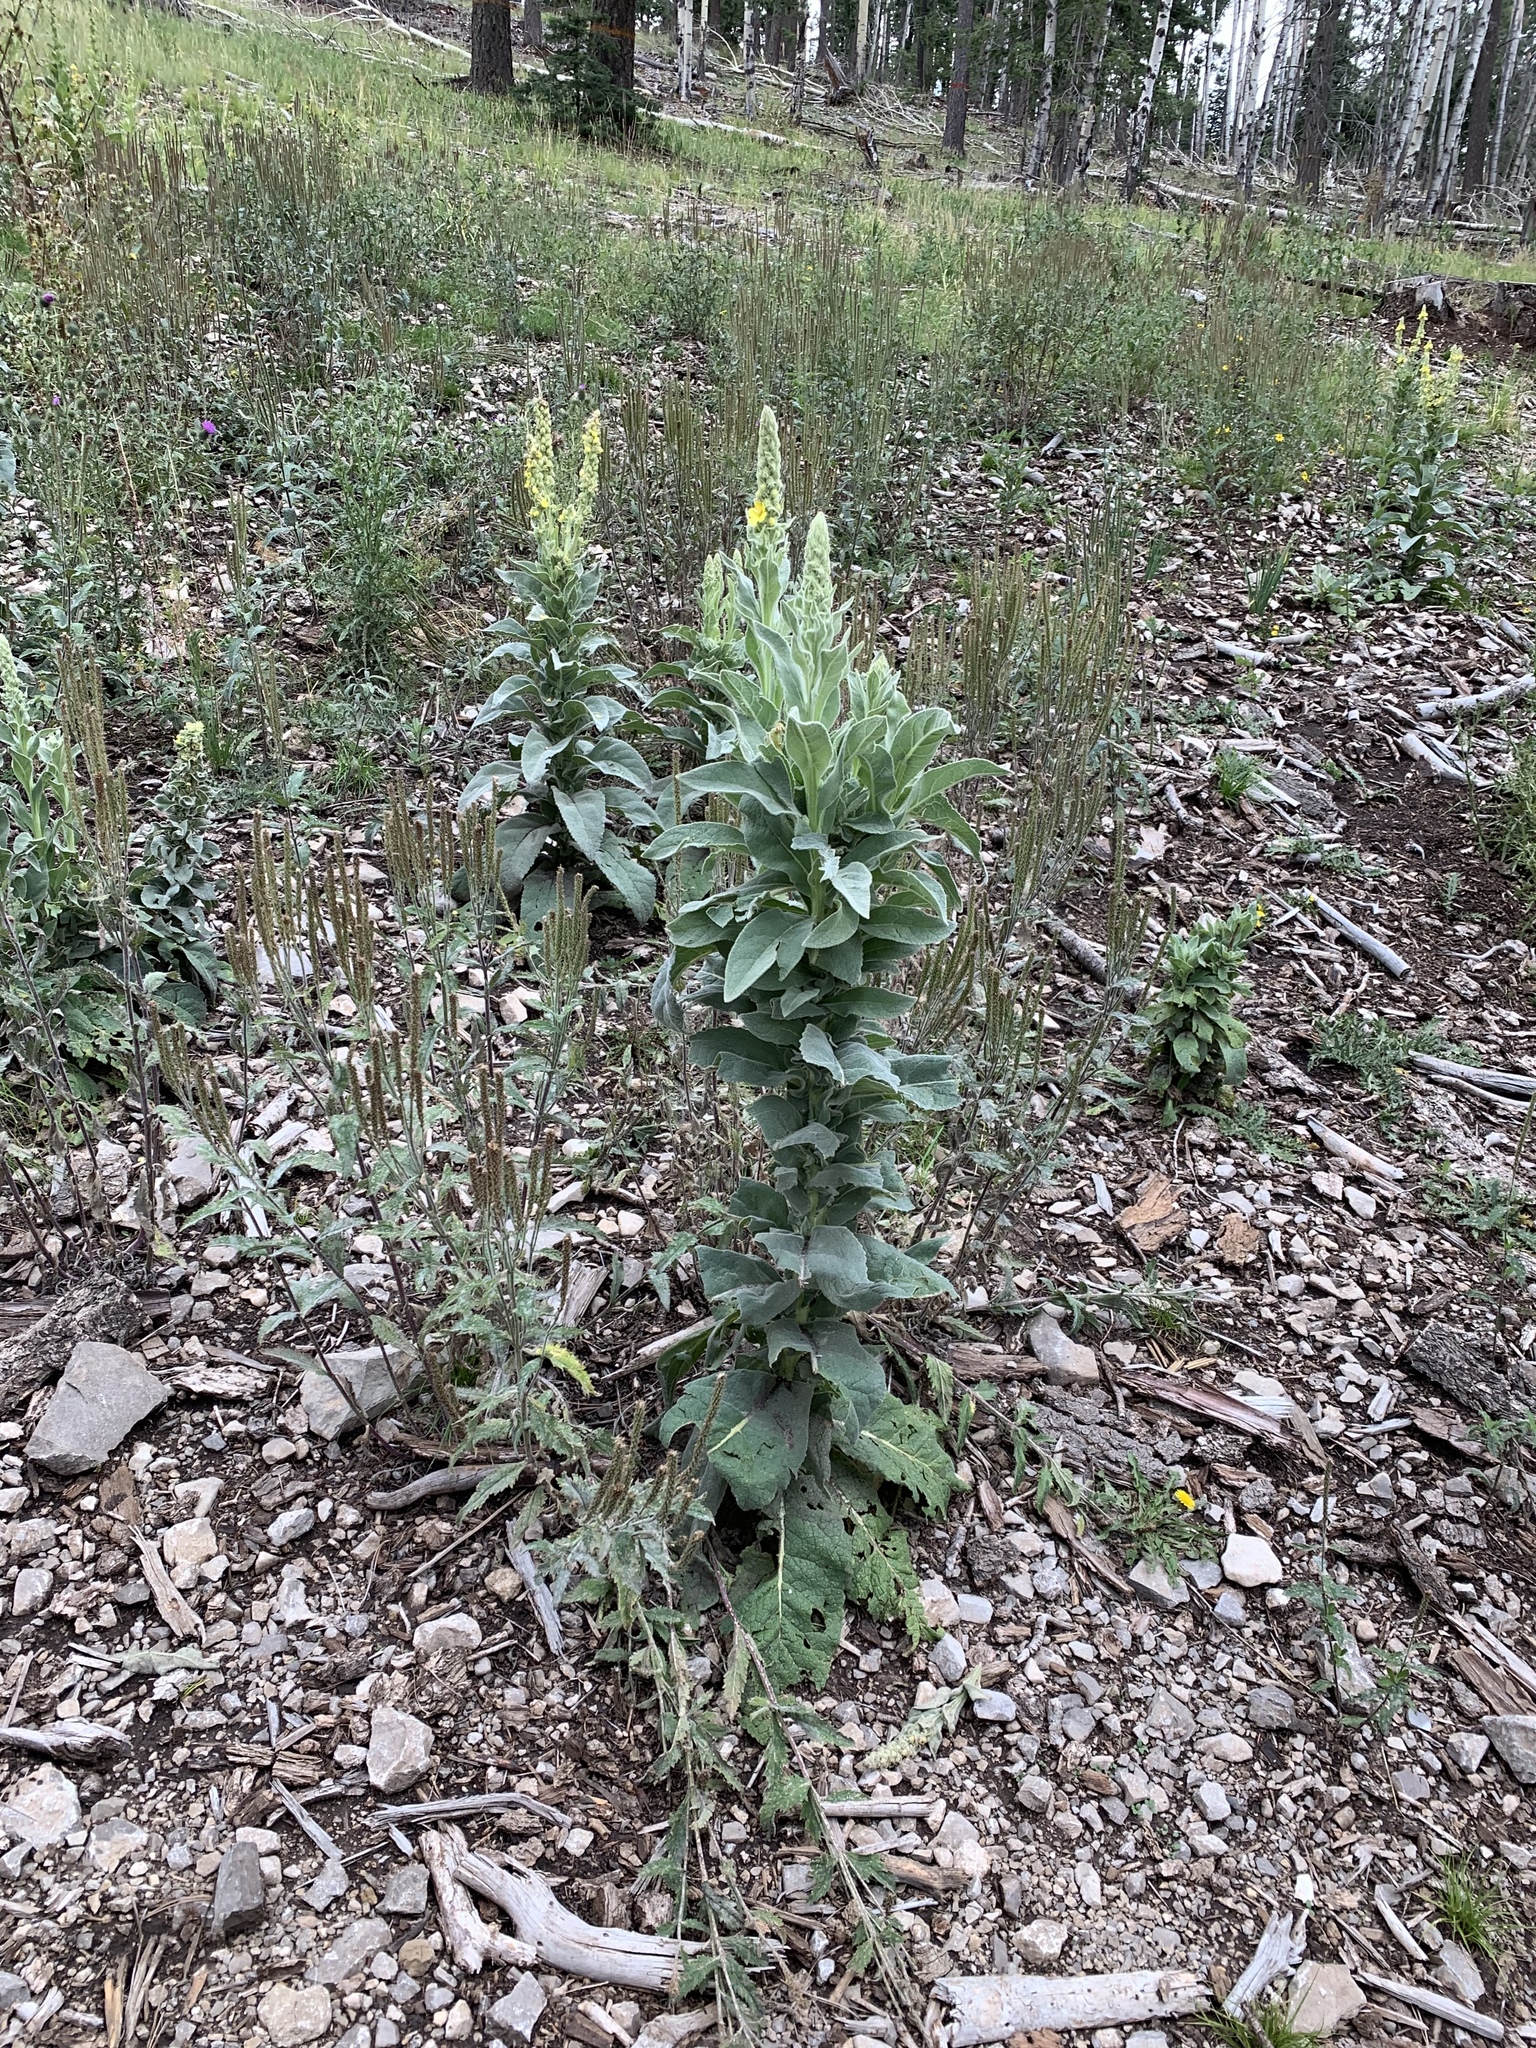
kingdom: Plantae
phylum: Tracheophyta
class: Magnoliopsida
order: Lamiales
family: Scrophulariaceae
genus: Verbascum
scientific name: Verbascum thapsus
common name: Common mullein
